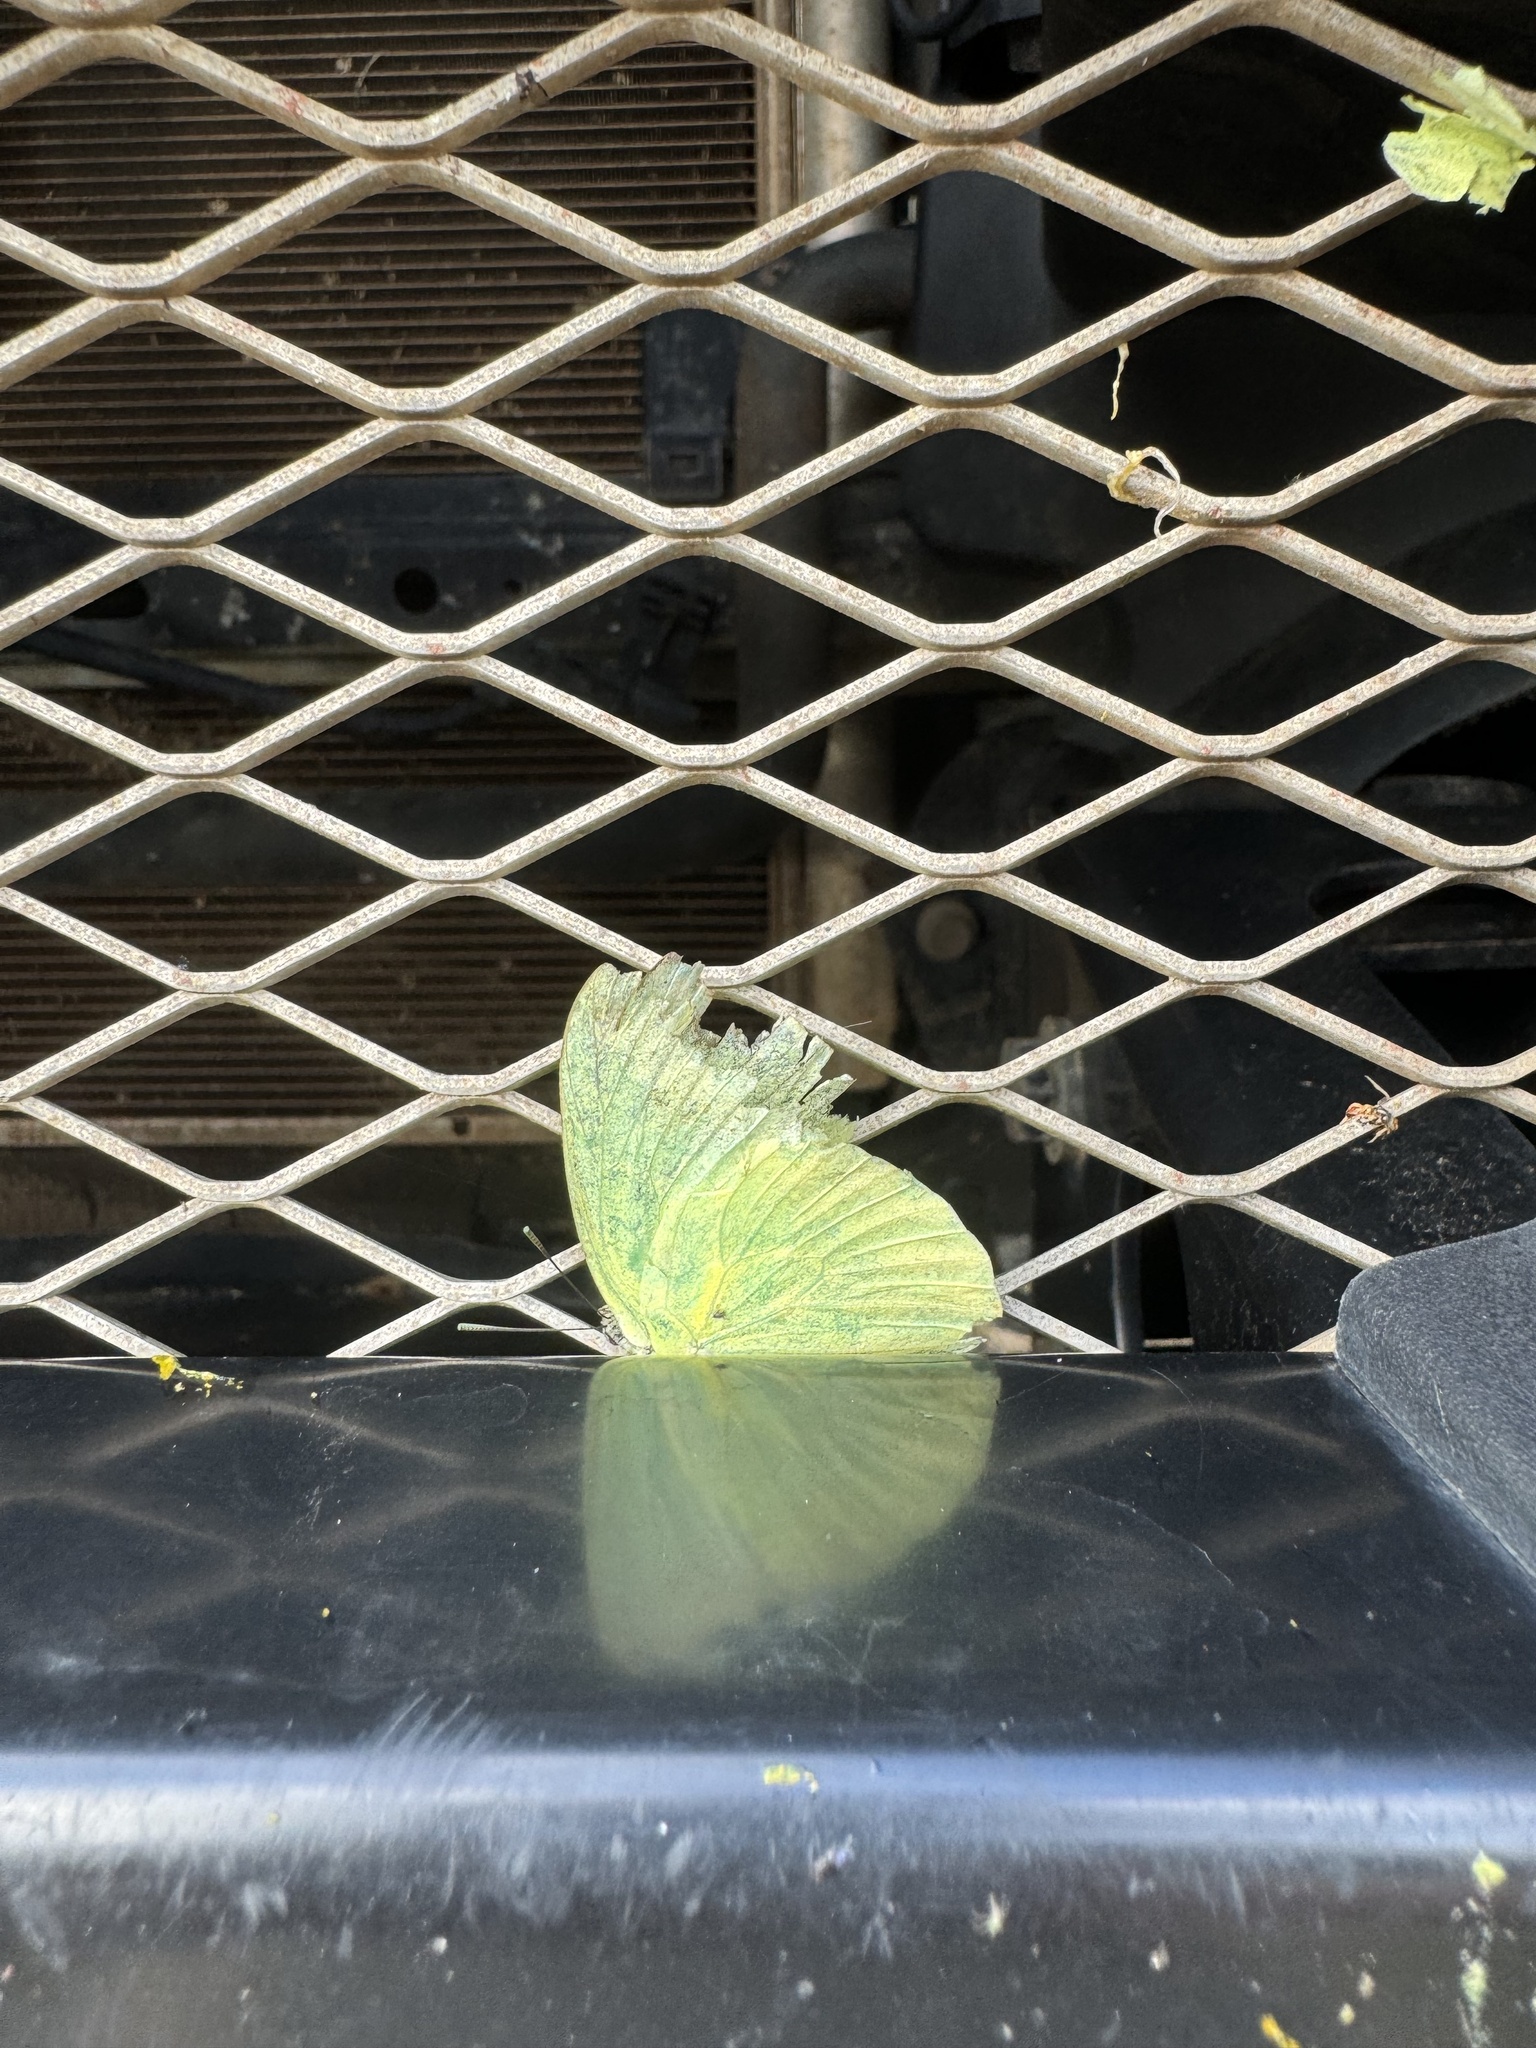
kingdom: Animalia
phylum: Arthropoda
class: Insecta
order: Lepidoptera
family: Pieridae
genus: Catopsilia
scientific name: Catopsilia pomona
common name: Common emigrant
